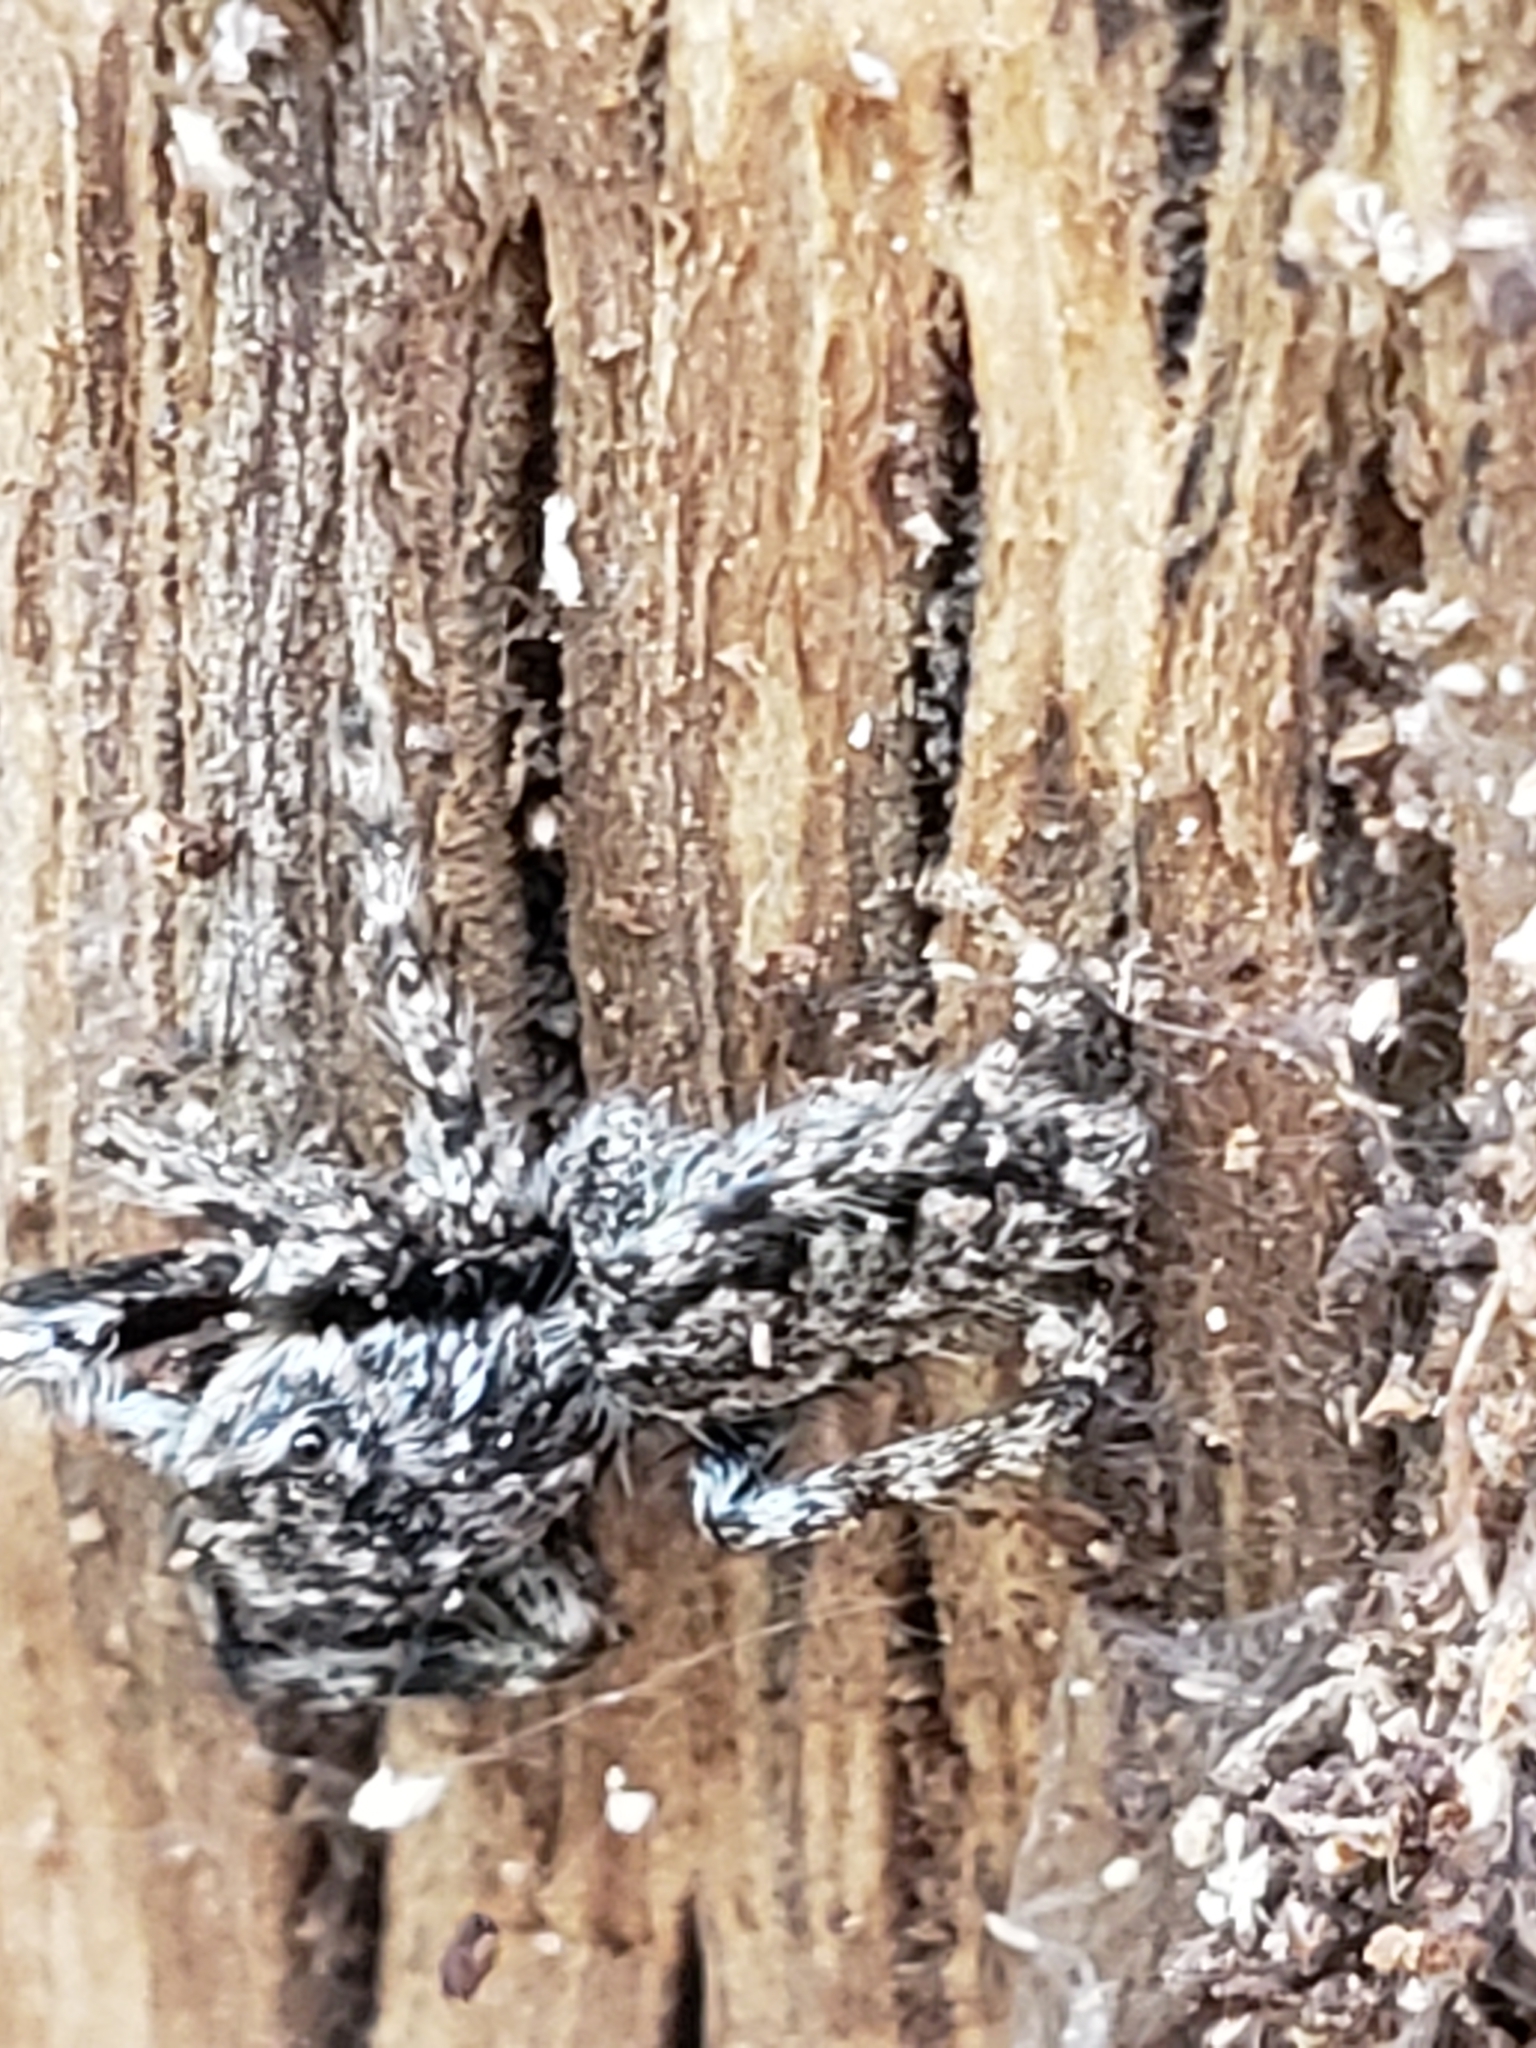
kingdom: Animalia
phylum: Arthropoda
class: Arachnida
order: Araneae
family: Salticidae
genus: Platycryptus
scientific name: Platycryptus undatus
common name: Tan jumping spider
